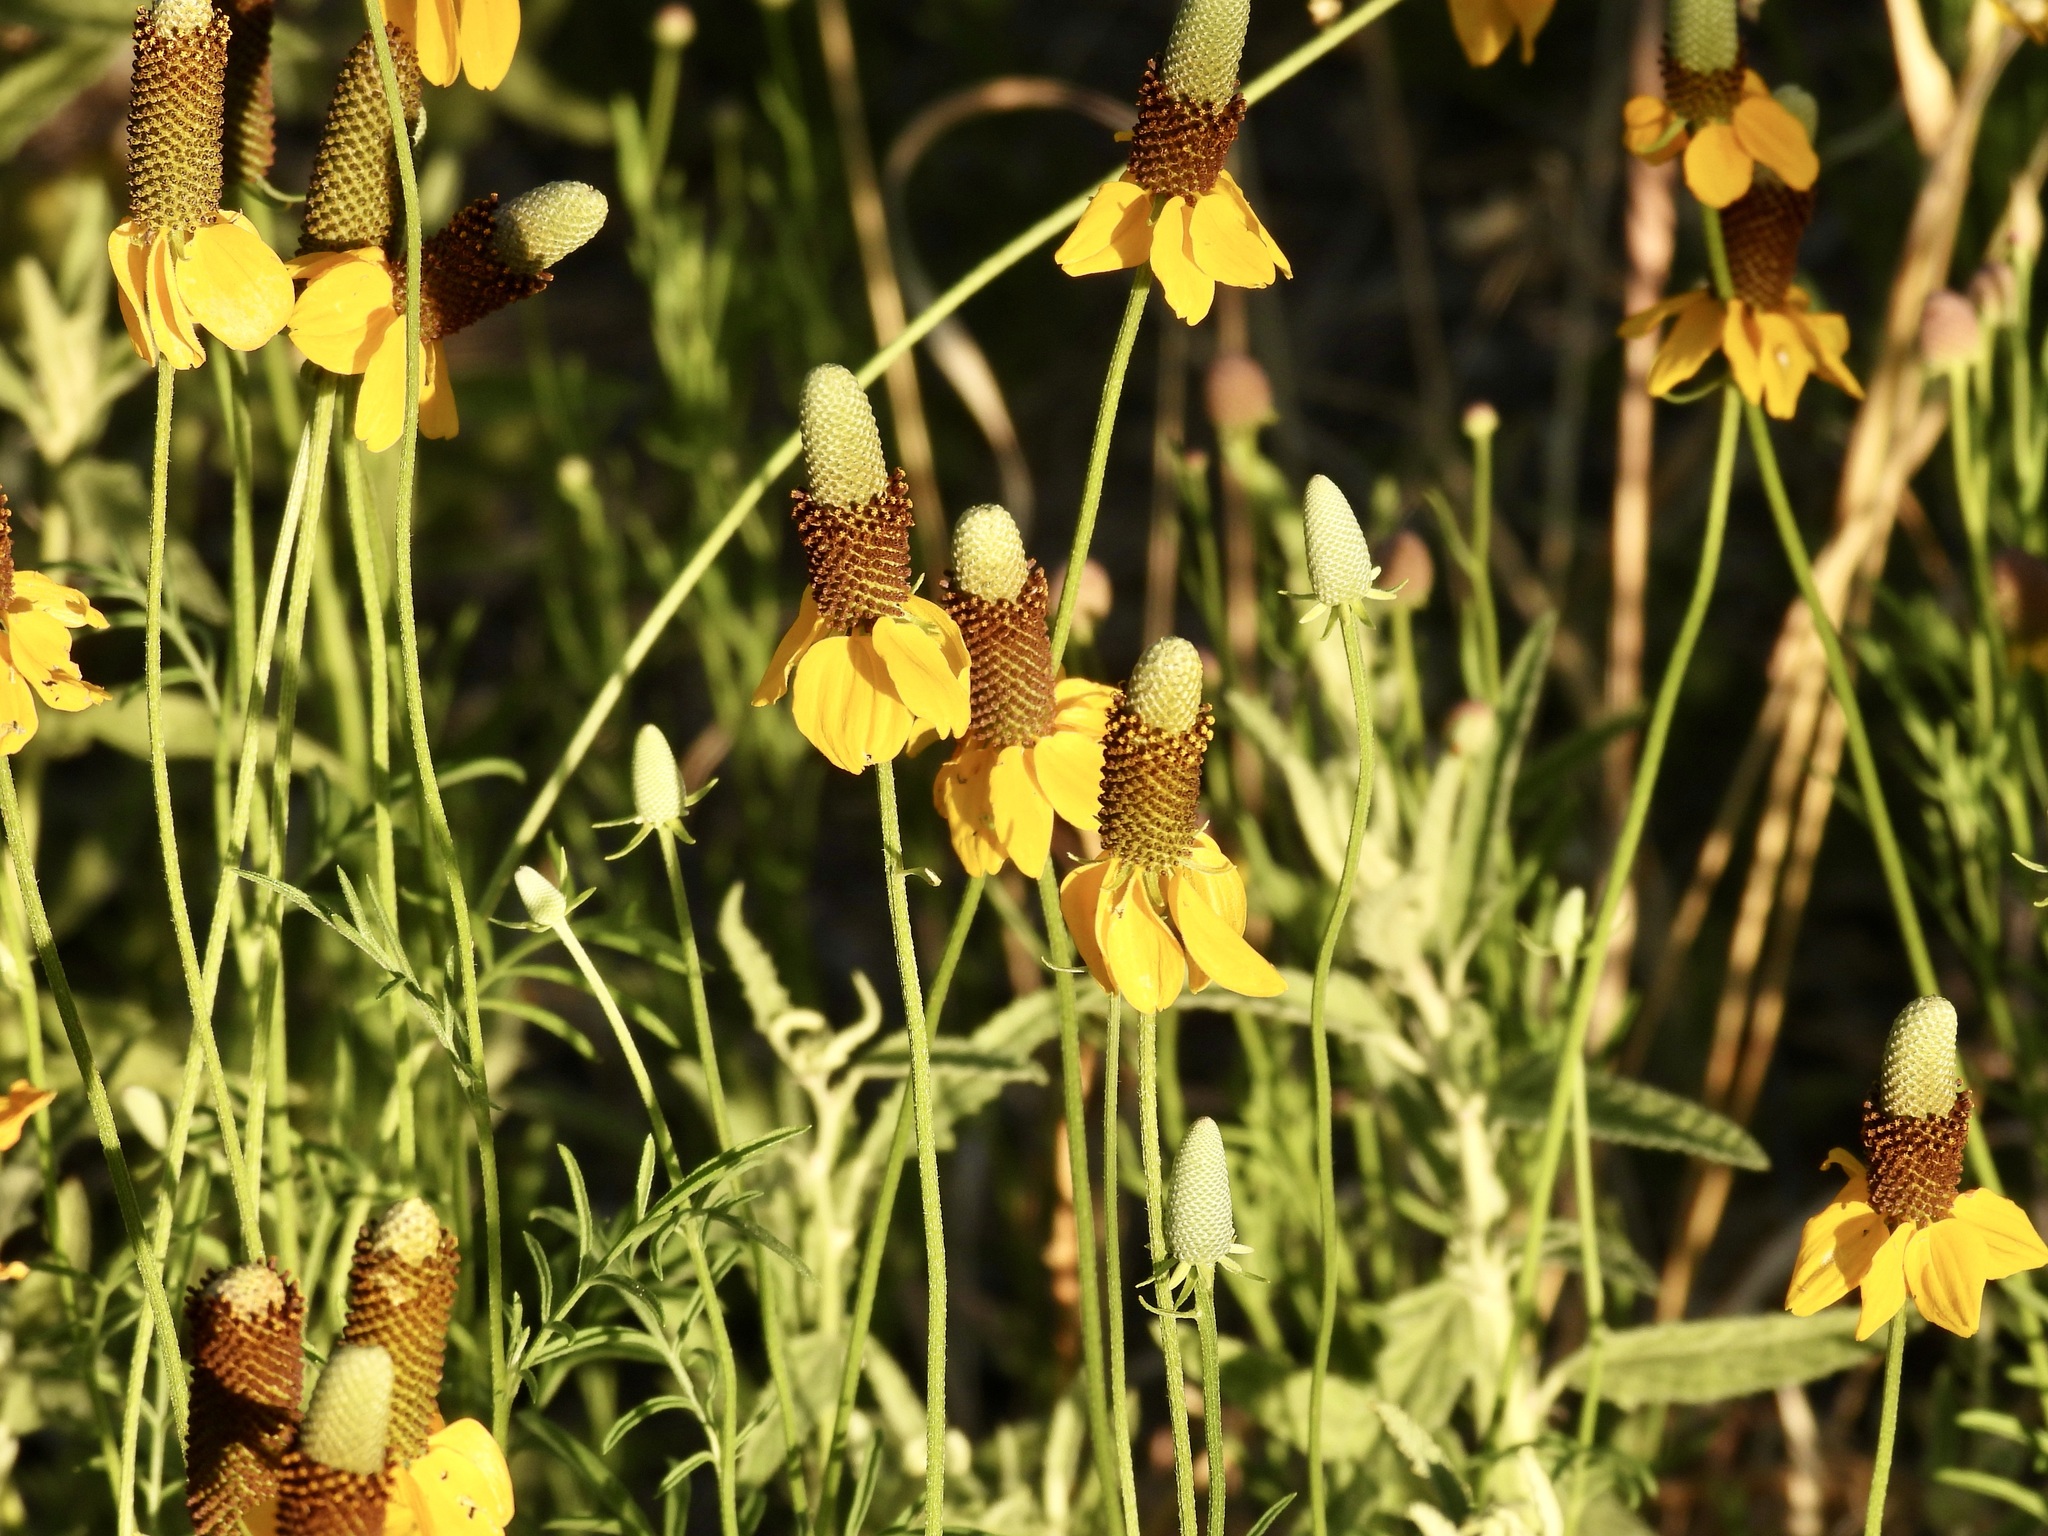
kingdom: Plantae
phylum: Tracheophyta
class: Magnoliopsida
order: Asterales
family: Asteraceae
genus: Ratibida
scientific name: Ratibida columnifera
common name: Prairie coneflower
